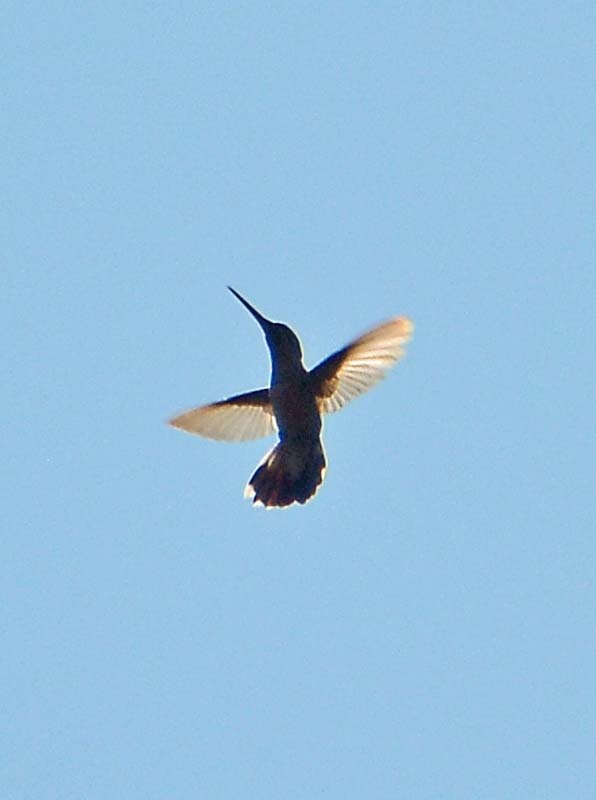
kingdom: Animalia
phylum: Chordata
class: Aves
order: Apodiformes
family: Trochilidae
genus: Cynanthus
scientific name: Cynanthus latirostris
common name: Broad-billed hummingbird
